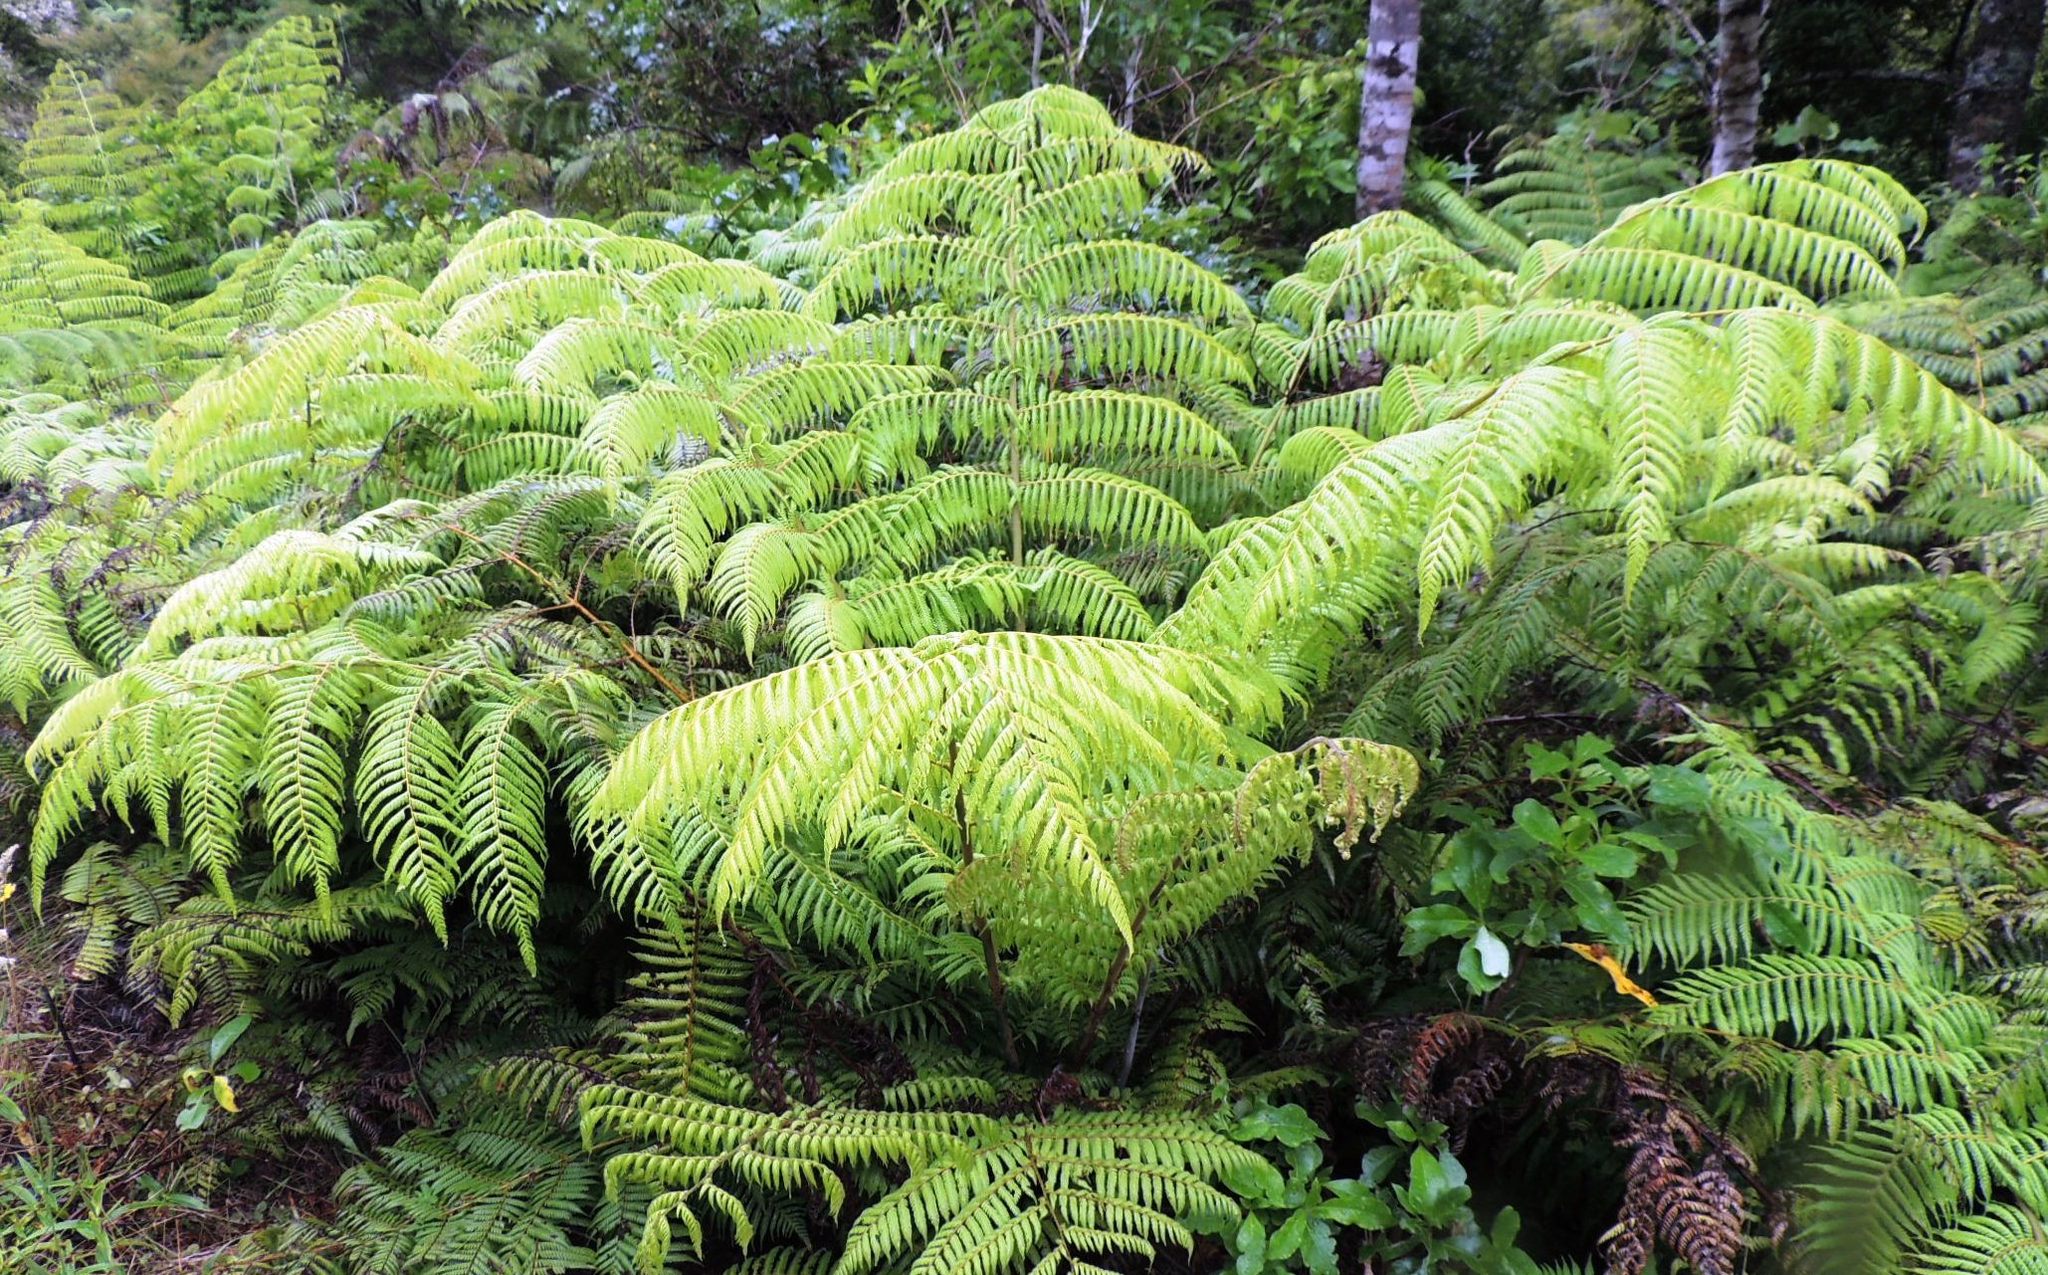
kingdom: Plantae
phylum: Tracheophyta
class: Polypodiopsida
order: Cyatheales
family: Cyatheaceae
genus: Alsophila
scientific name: Alsophila dealbata
